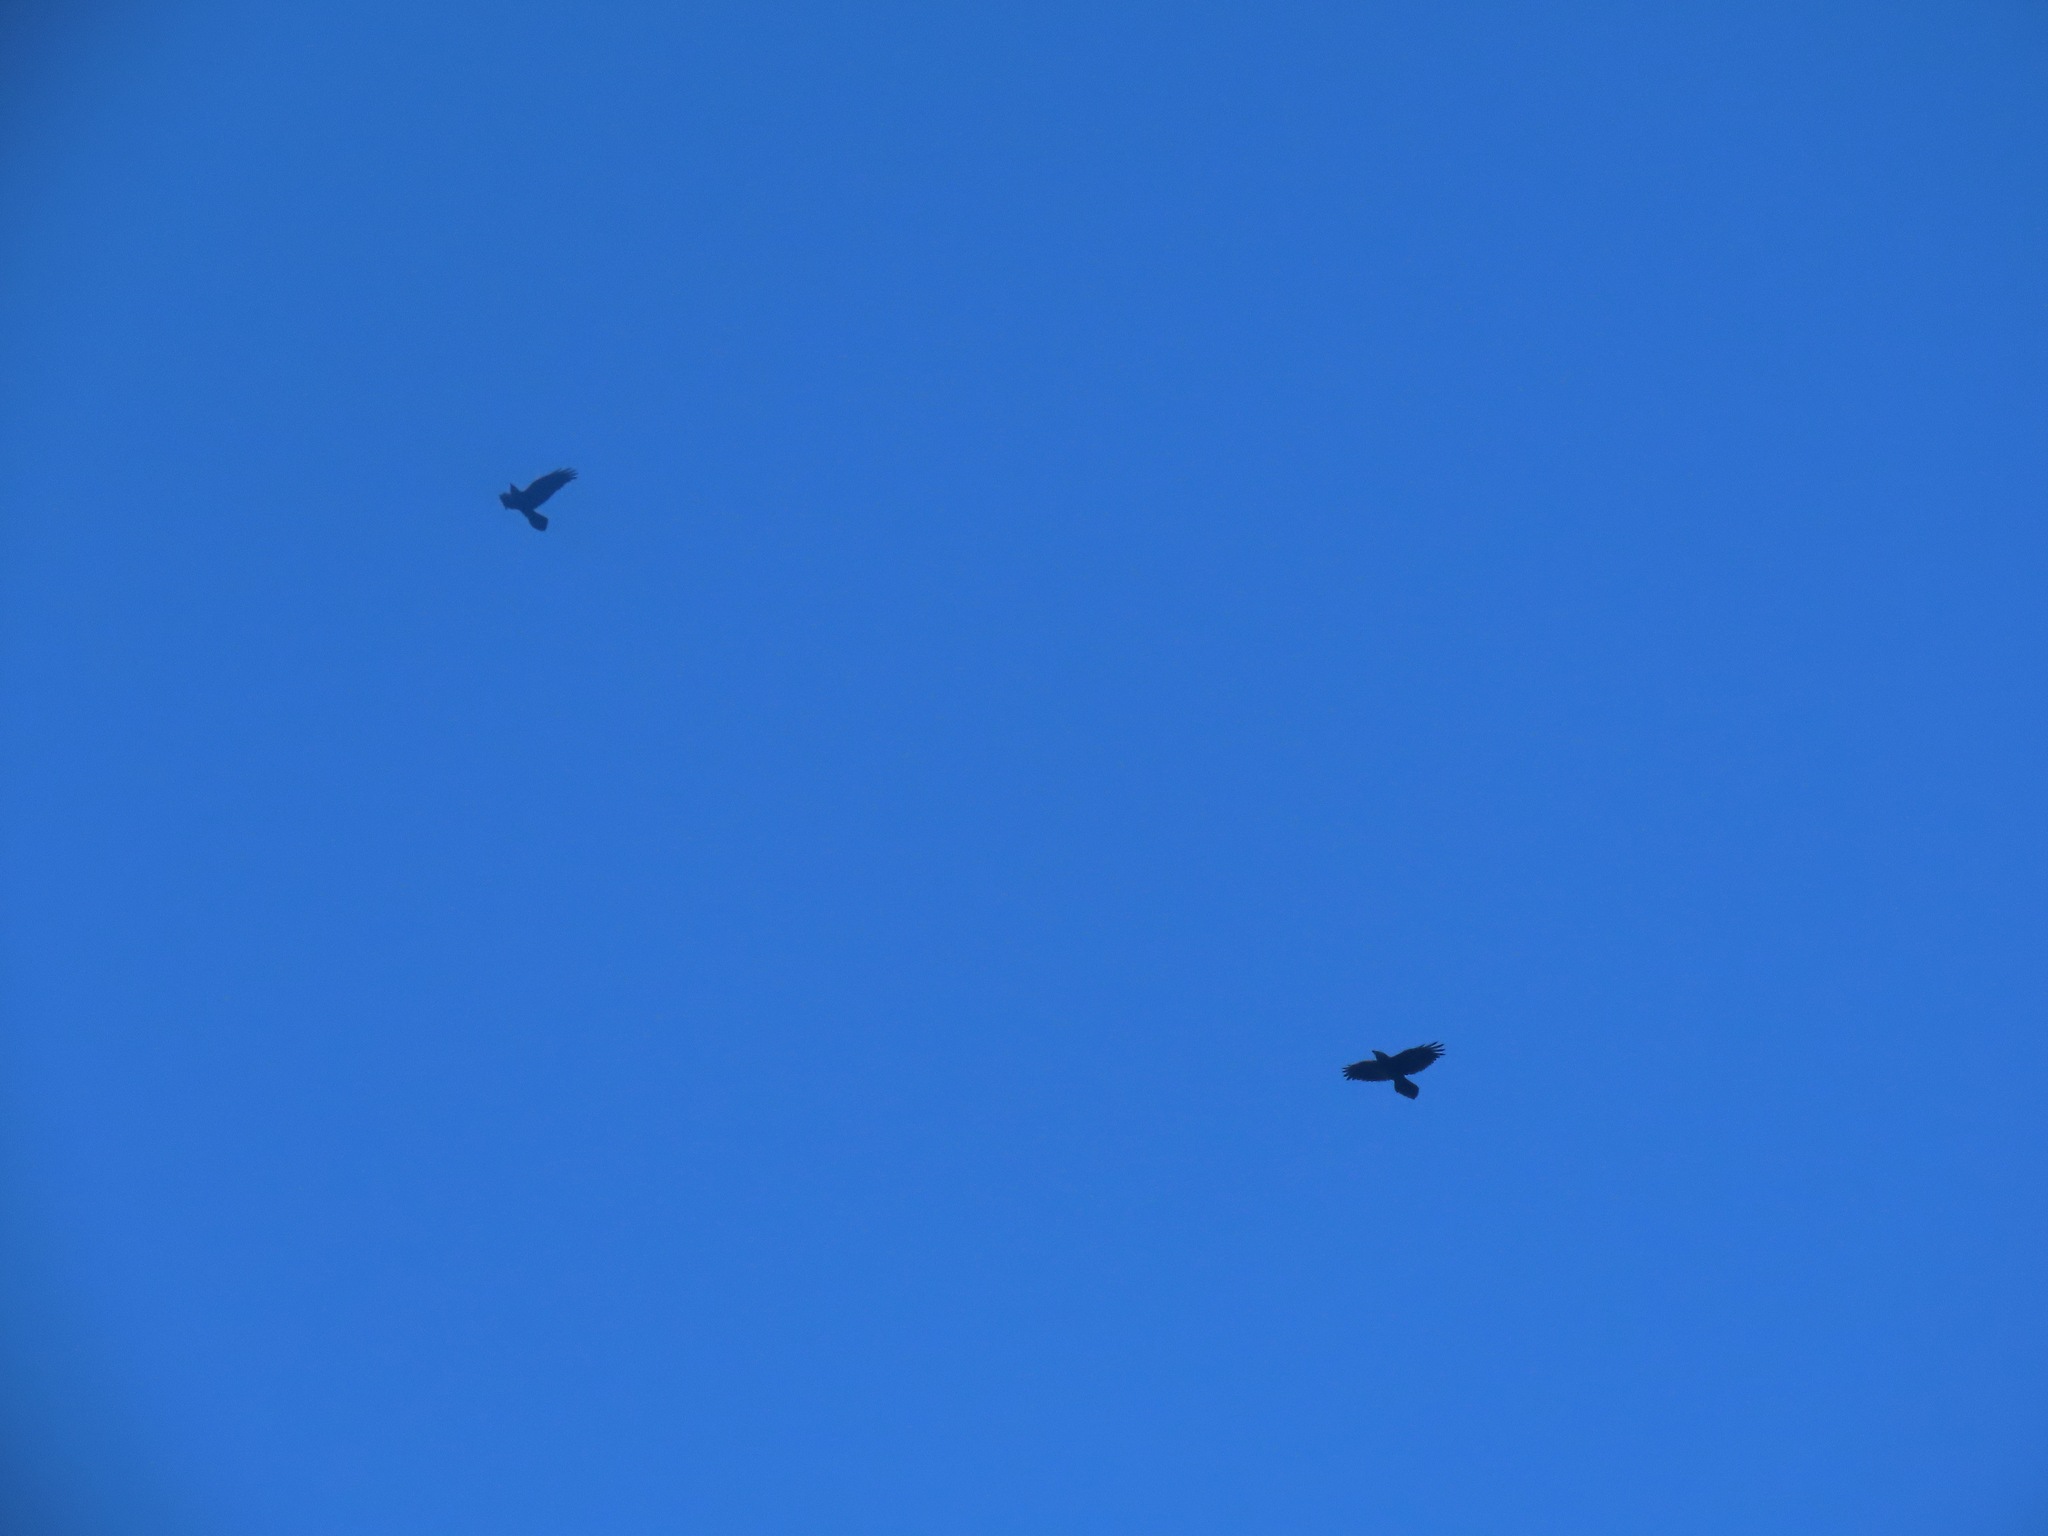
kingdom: Animalia
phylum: Chordata
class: Aves
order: Passeriformes
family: Corvidae
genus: Corvus
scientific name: Corvus corax
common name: Common raven
